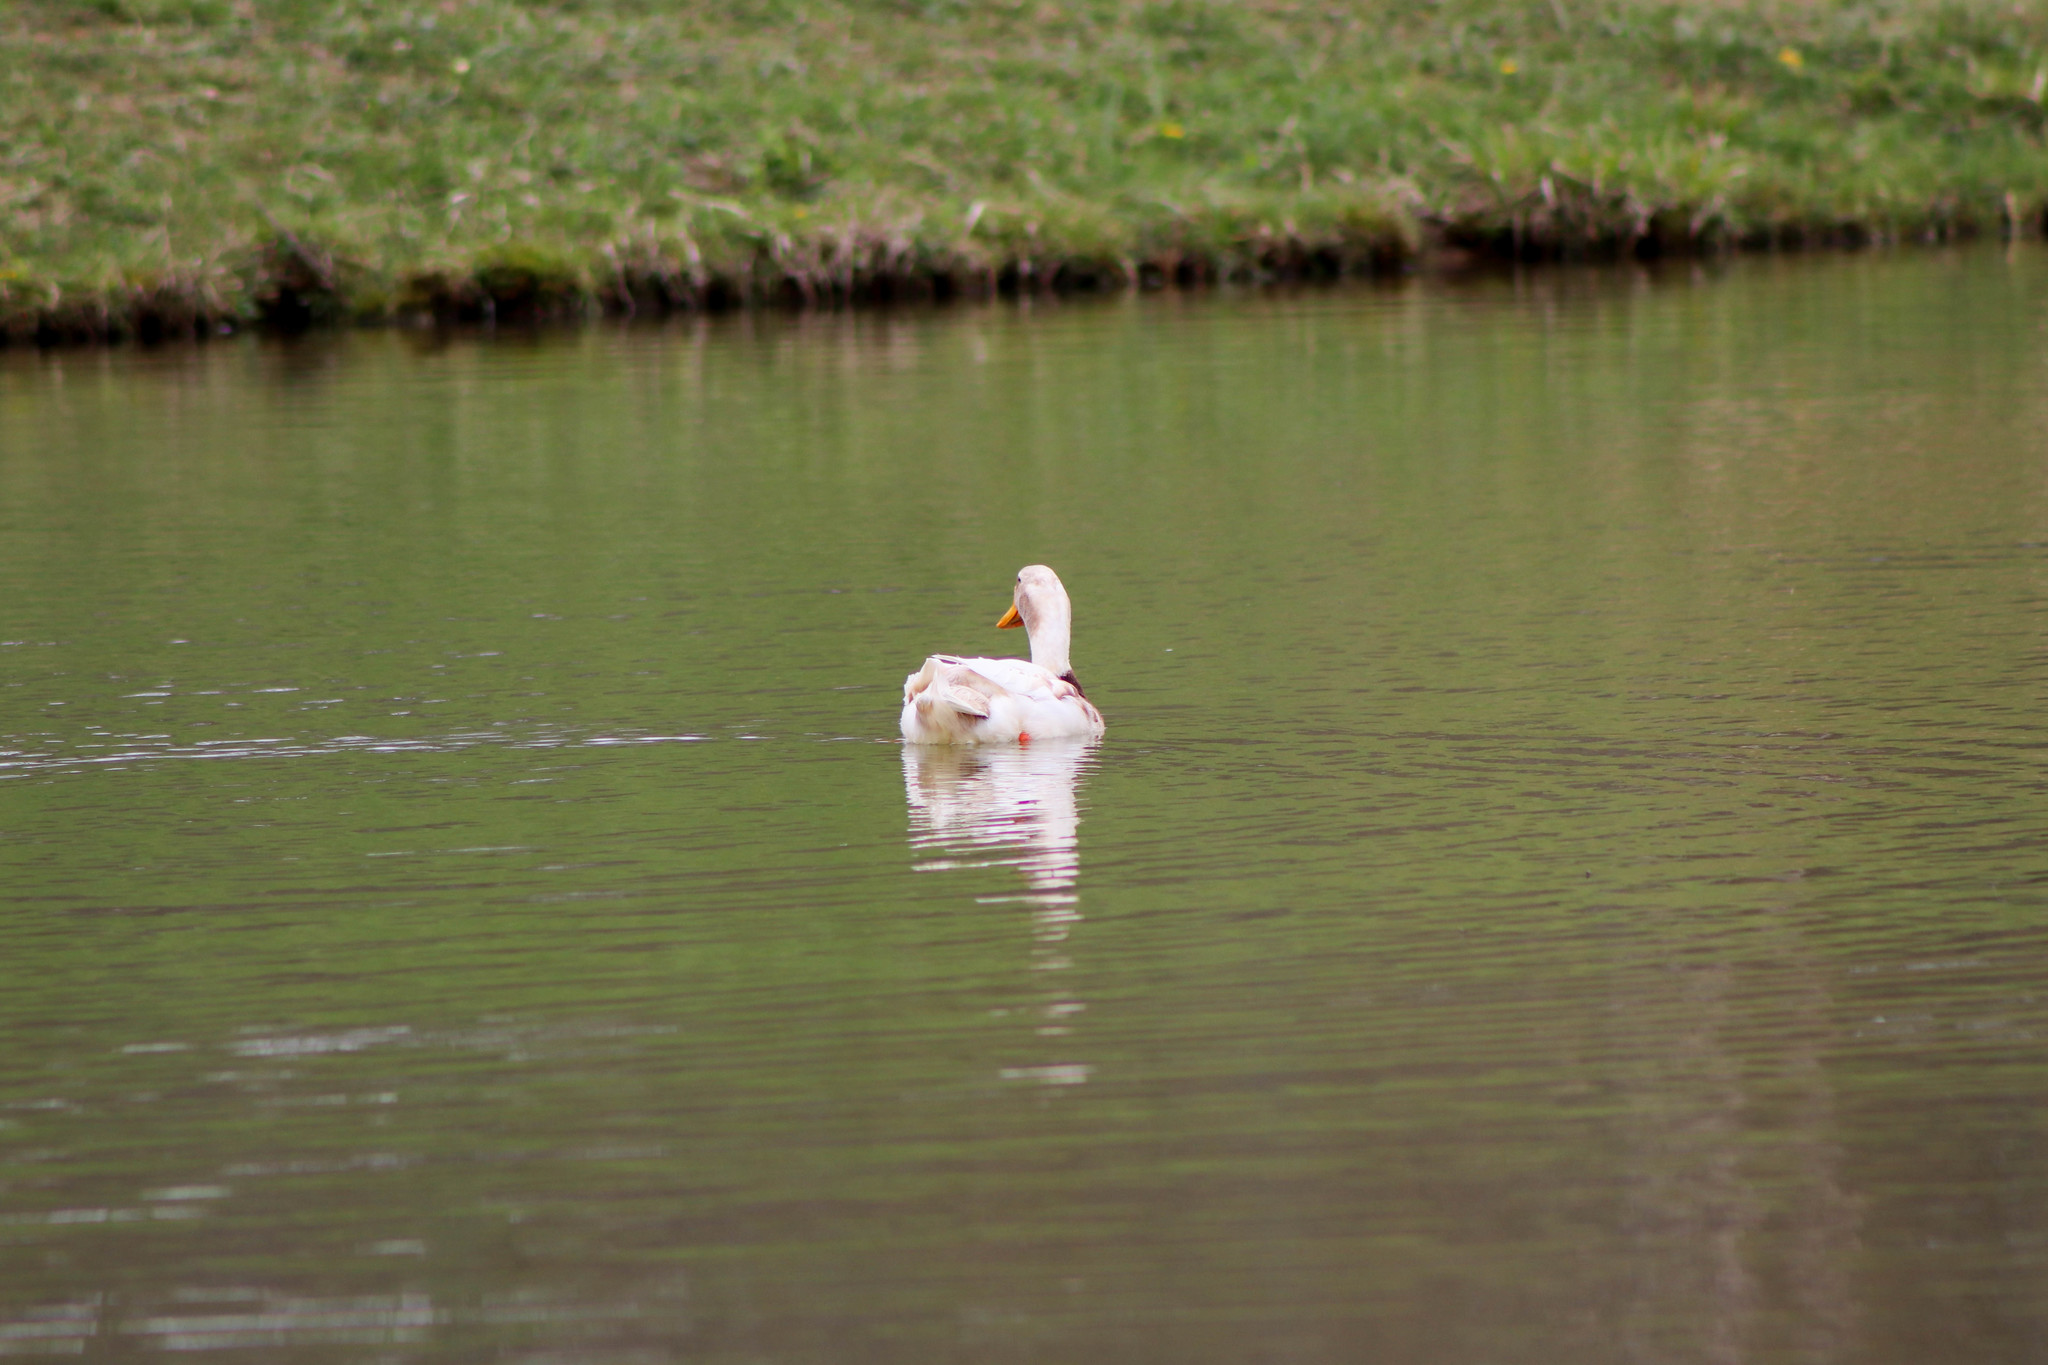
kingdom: Animalia
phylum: Chordata
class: Aves
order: Anseriformes
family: Anatidae
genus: Anas
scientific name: Anas platyrhynchos
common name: Mallard
